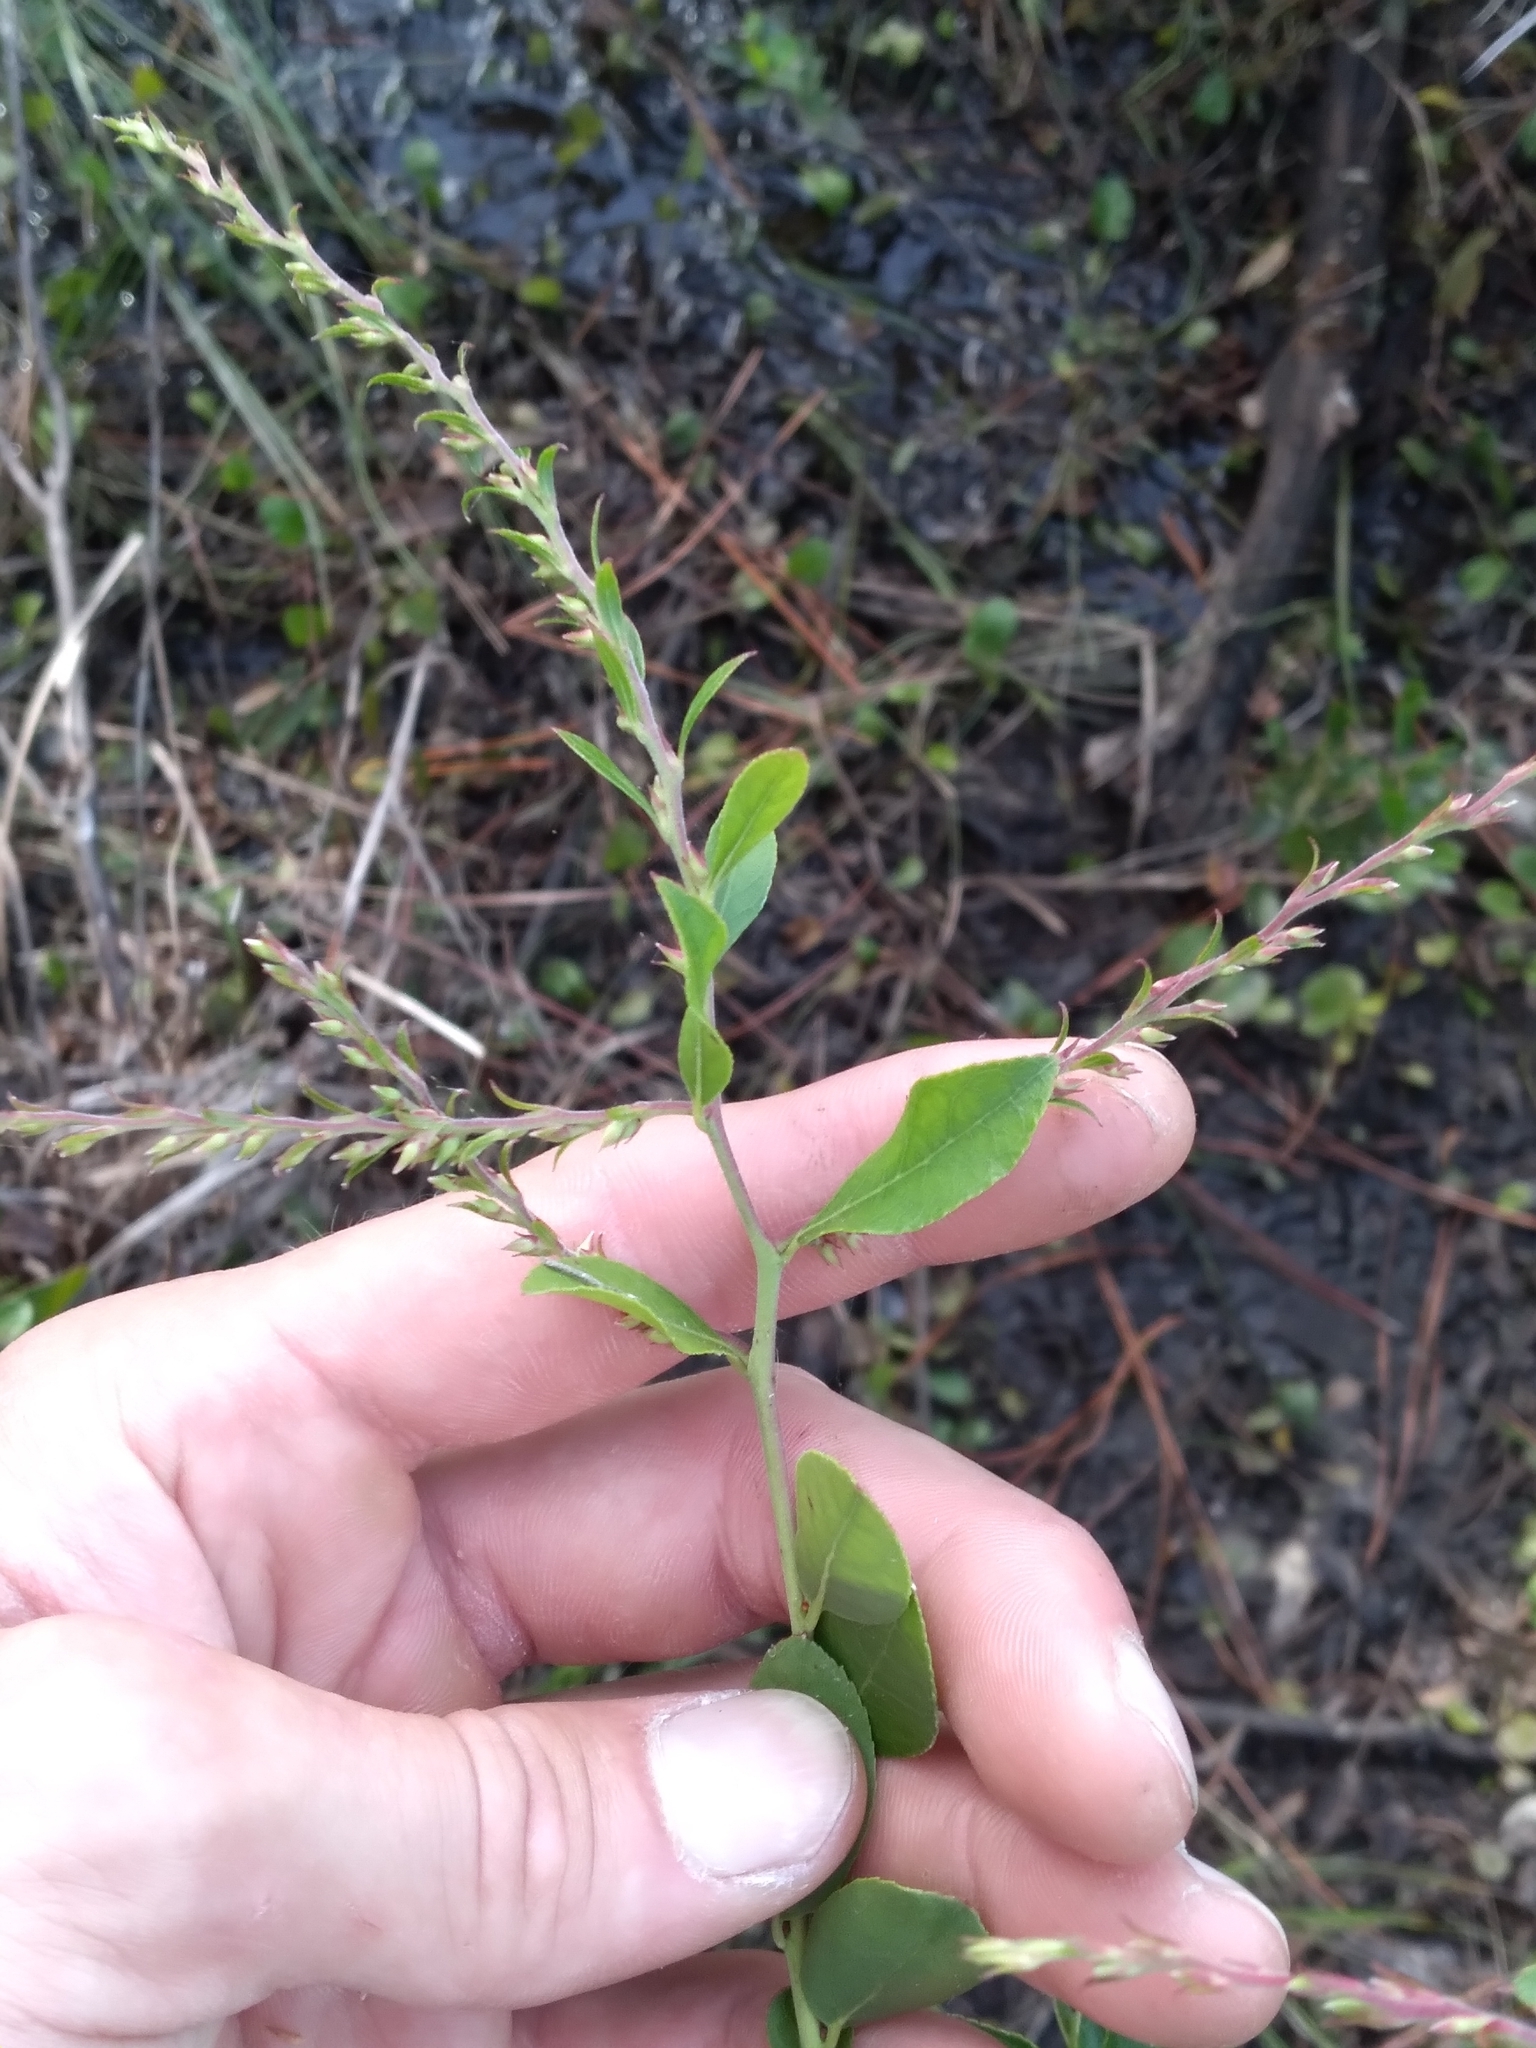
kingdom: Plantae
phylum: Tracheophyta
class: Magnoliopsida
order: Ericales
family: Ericaceae
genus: Eubotrys
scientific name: Eubotrys racemosa
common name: Fetterbush
